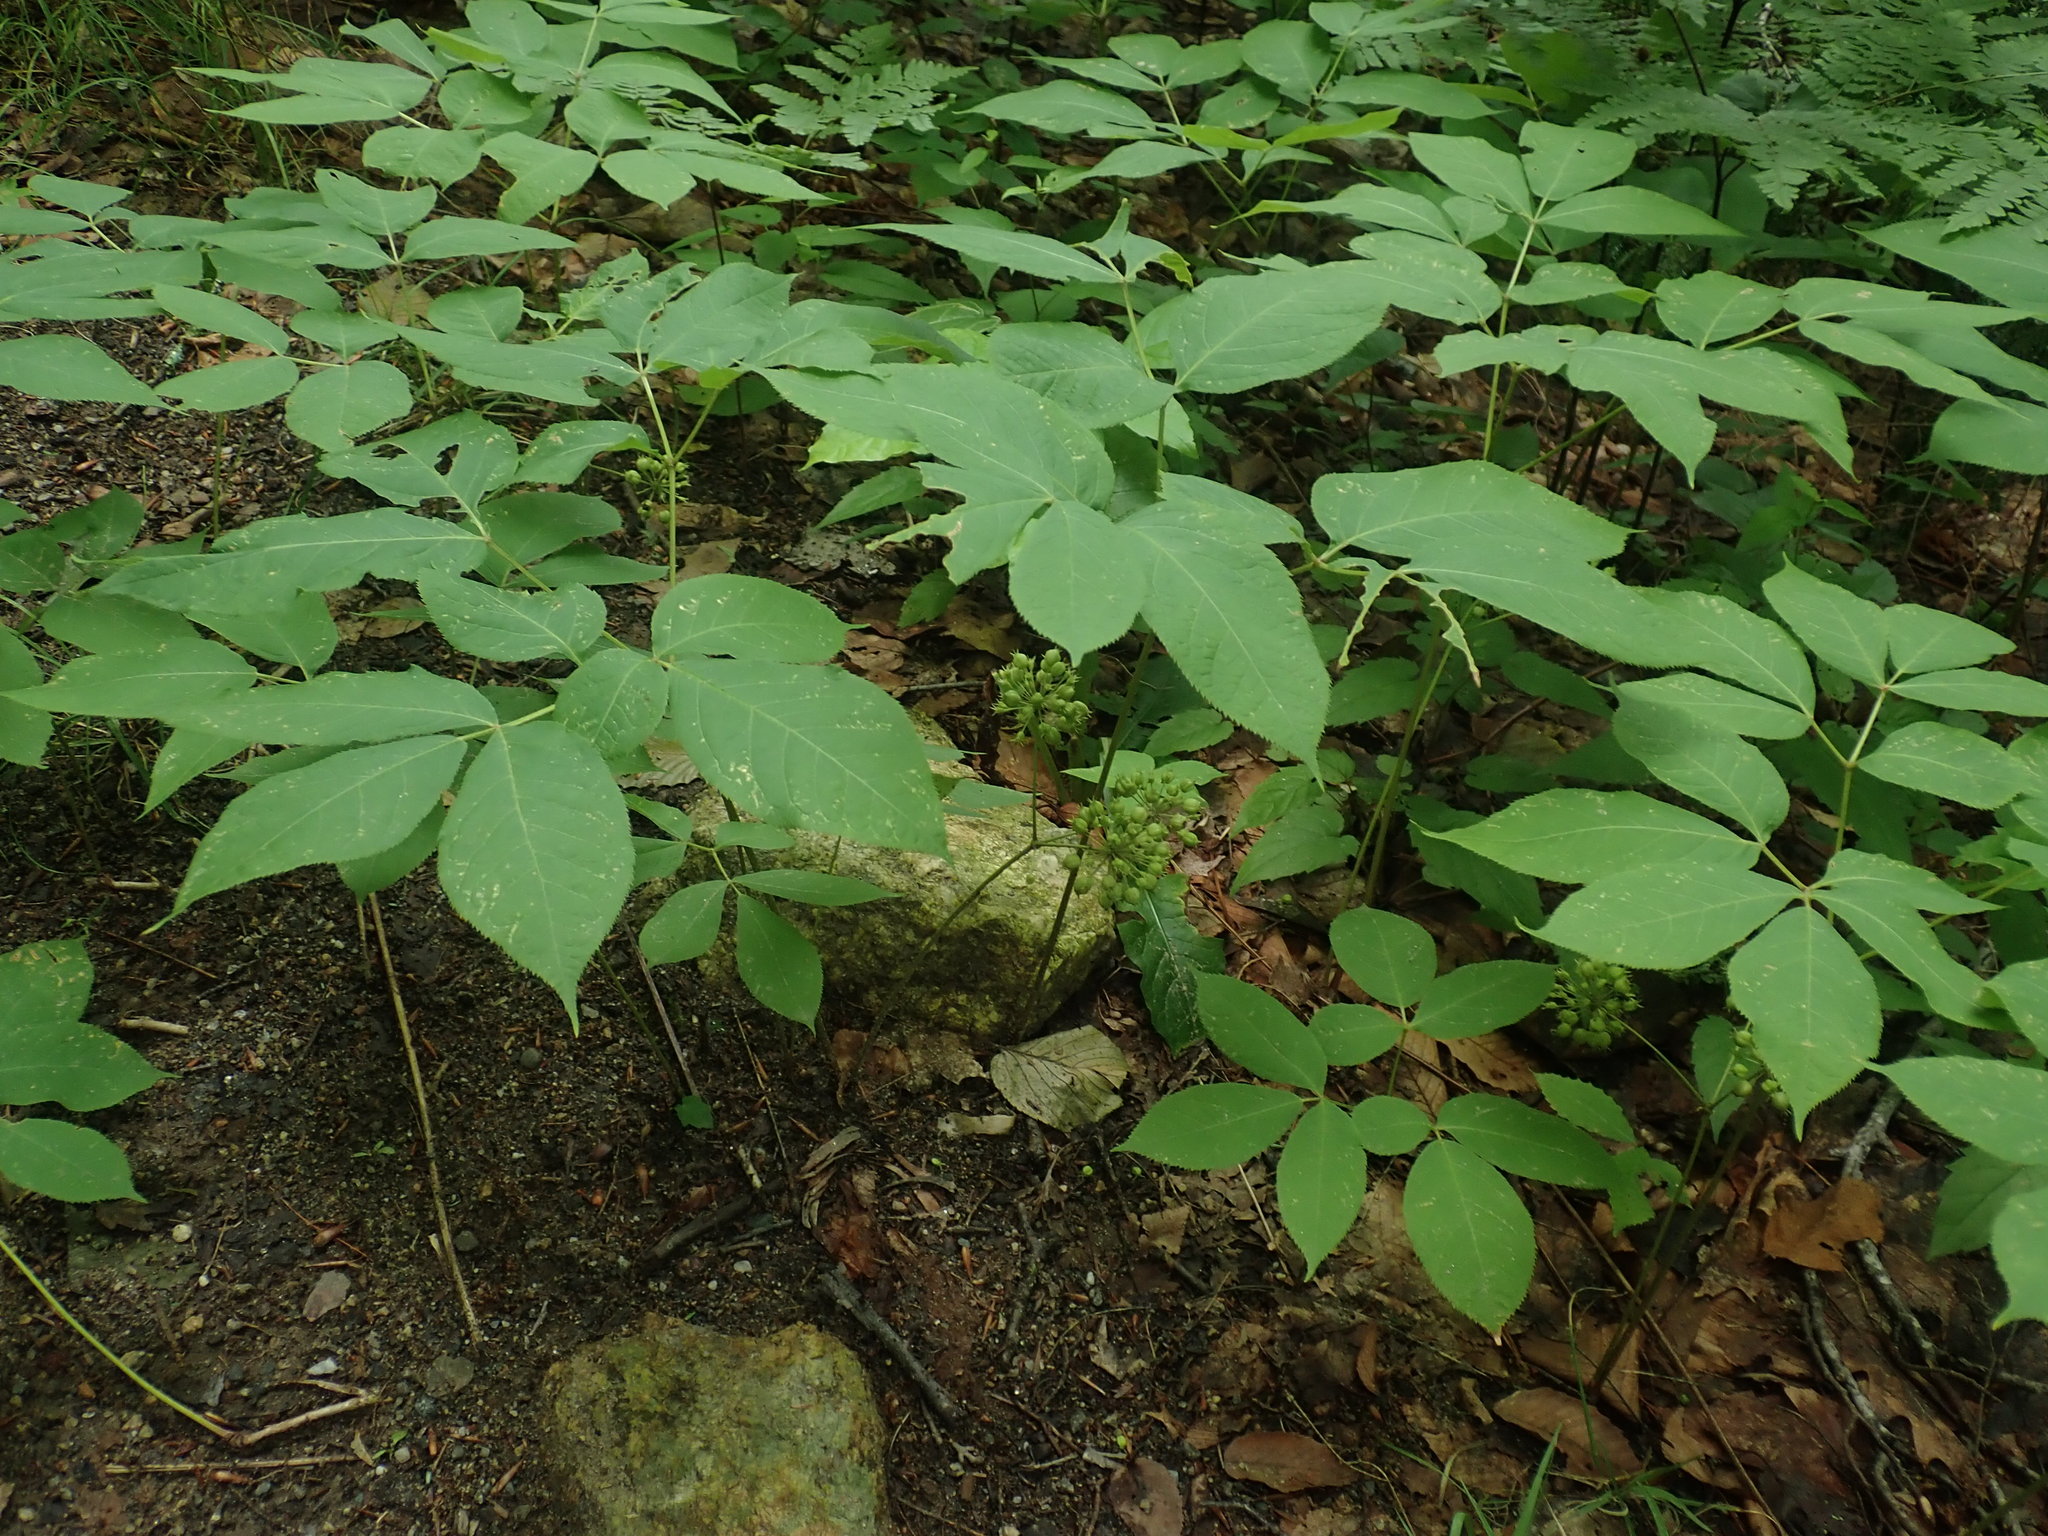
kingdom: Plantae
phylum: Tracheophyta
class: Magnoliopsida
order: Apiales
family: Araliaceae
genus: Aralia
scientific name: Aralia nudicaulis
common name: Wild sarsaparilla
